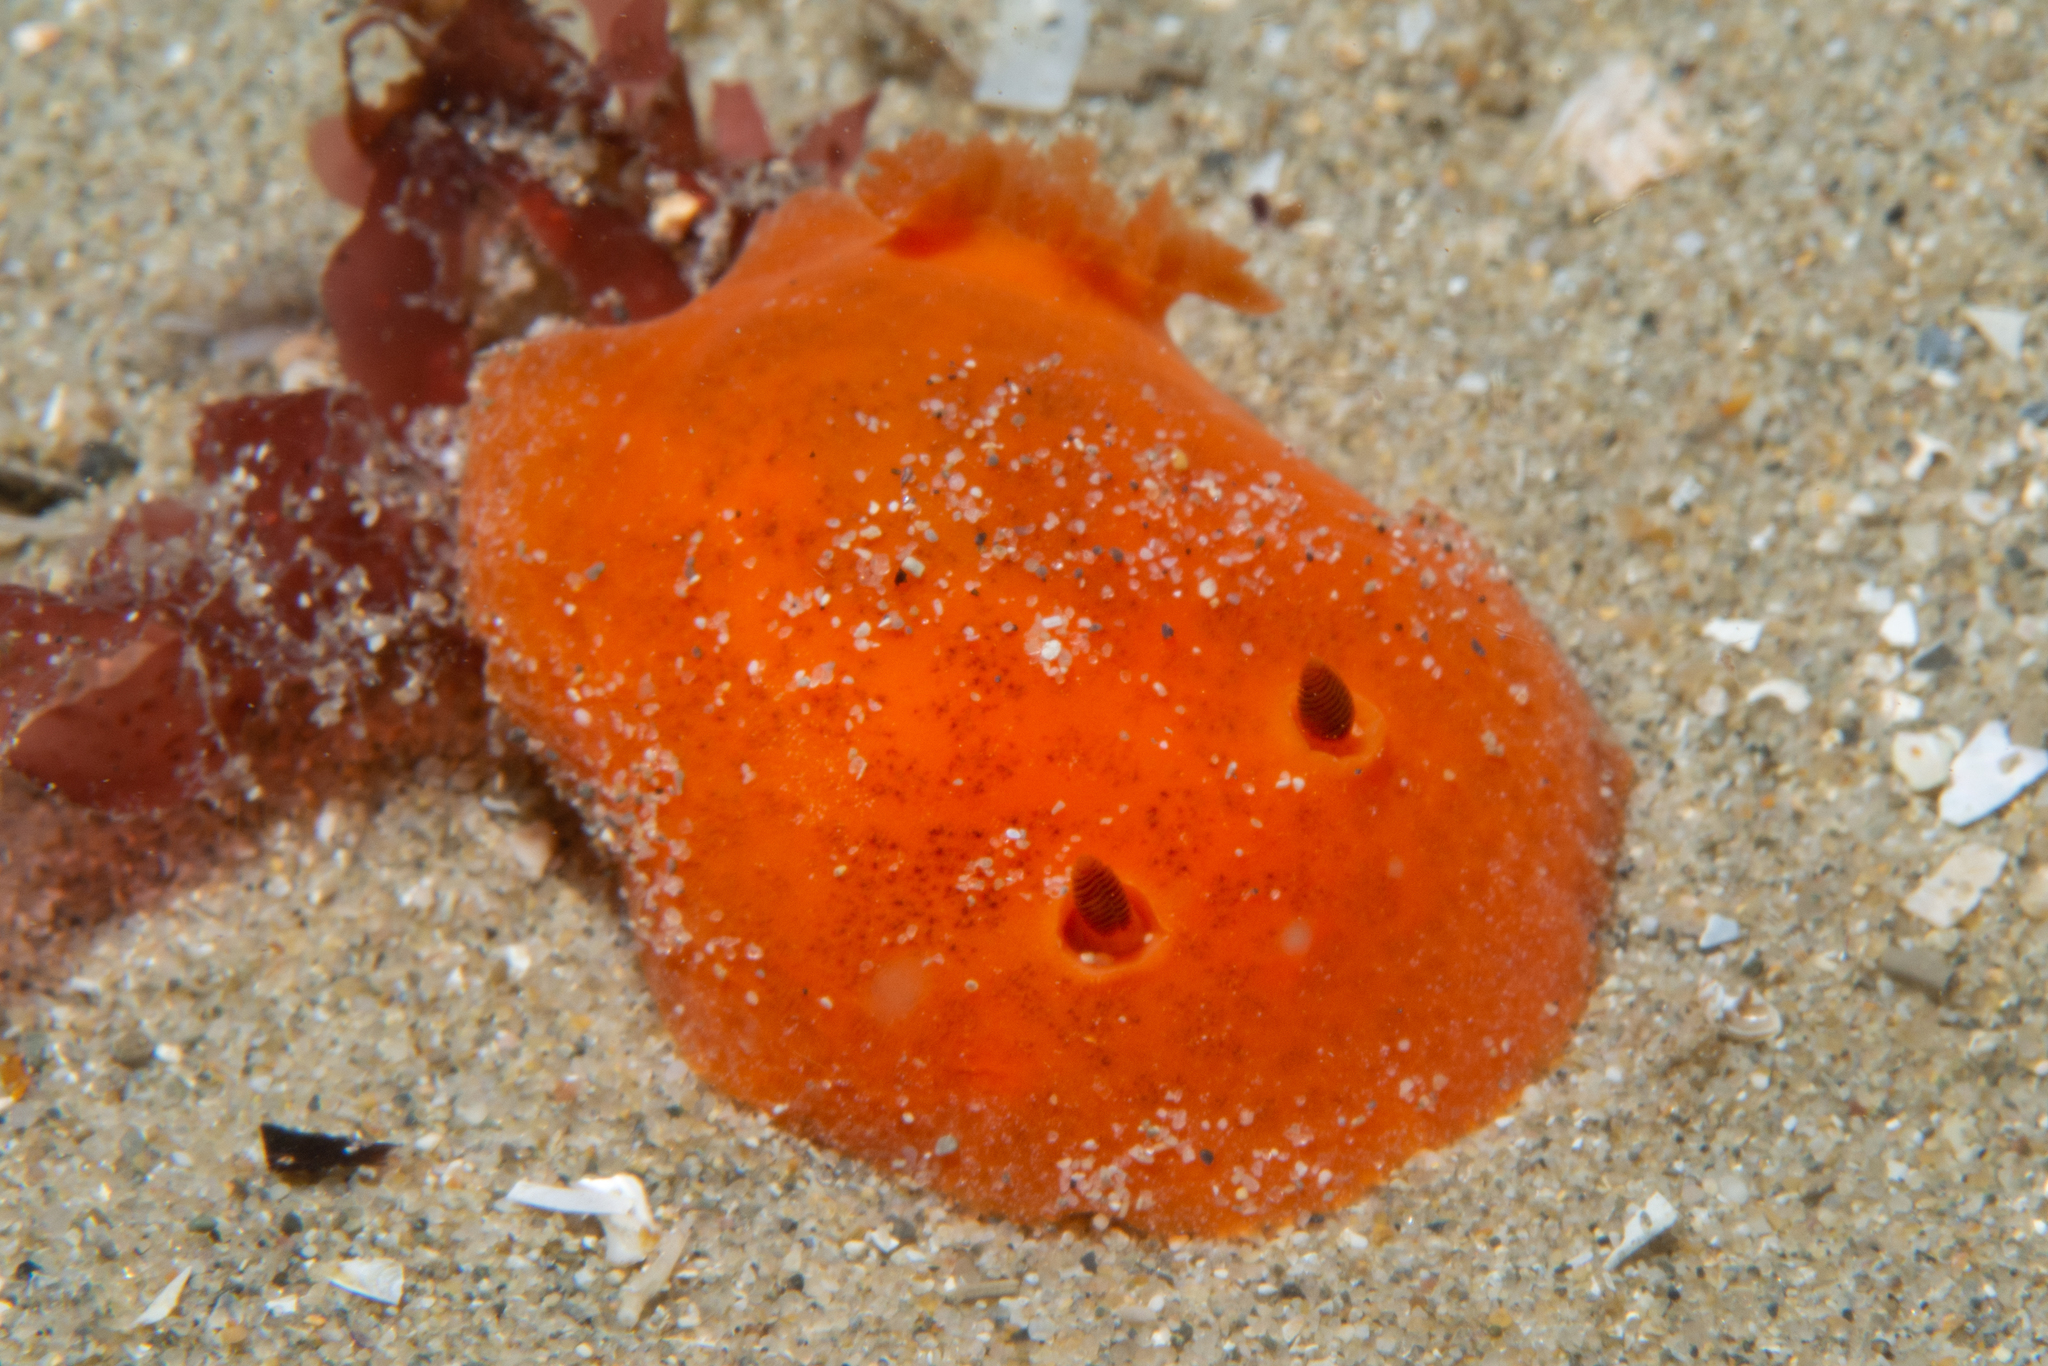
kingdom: Animalia
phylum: Mollusca
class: Gastropoda
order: Nudibranchia
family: Discodorididae
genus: Discodoris
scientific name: Discodoris paroa
